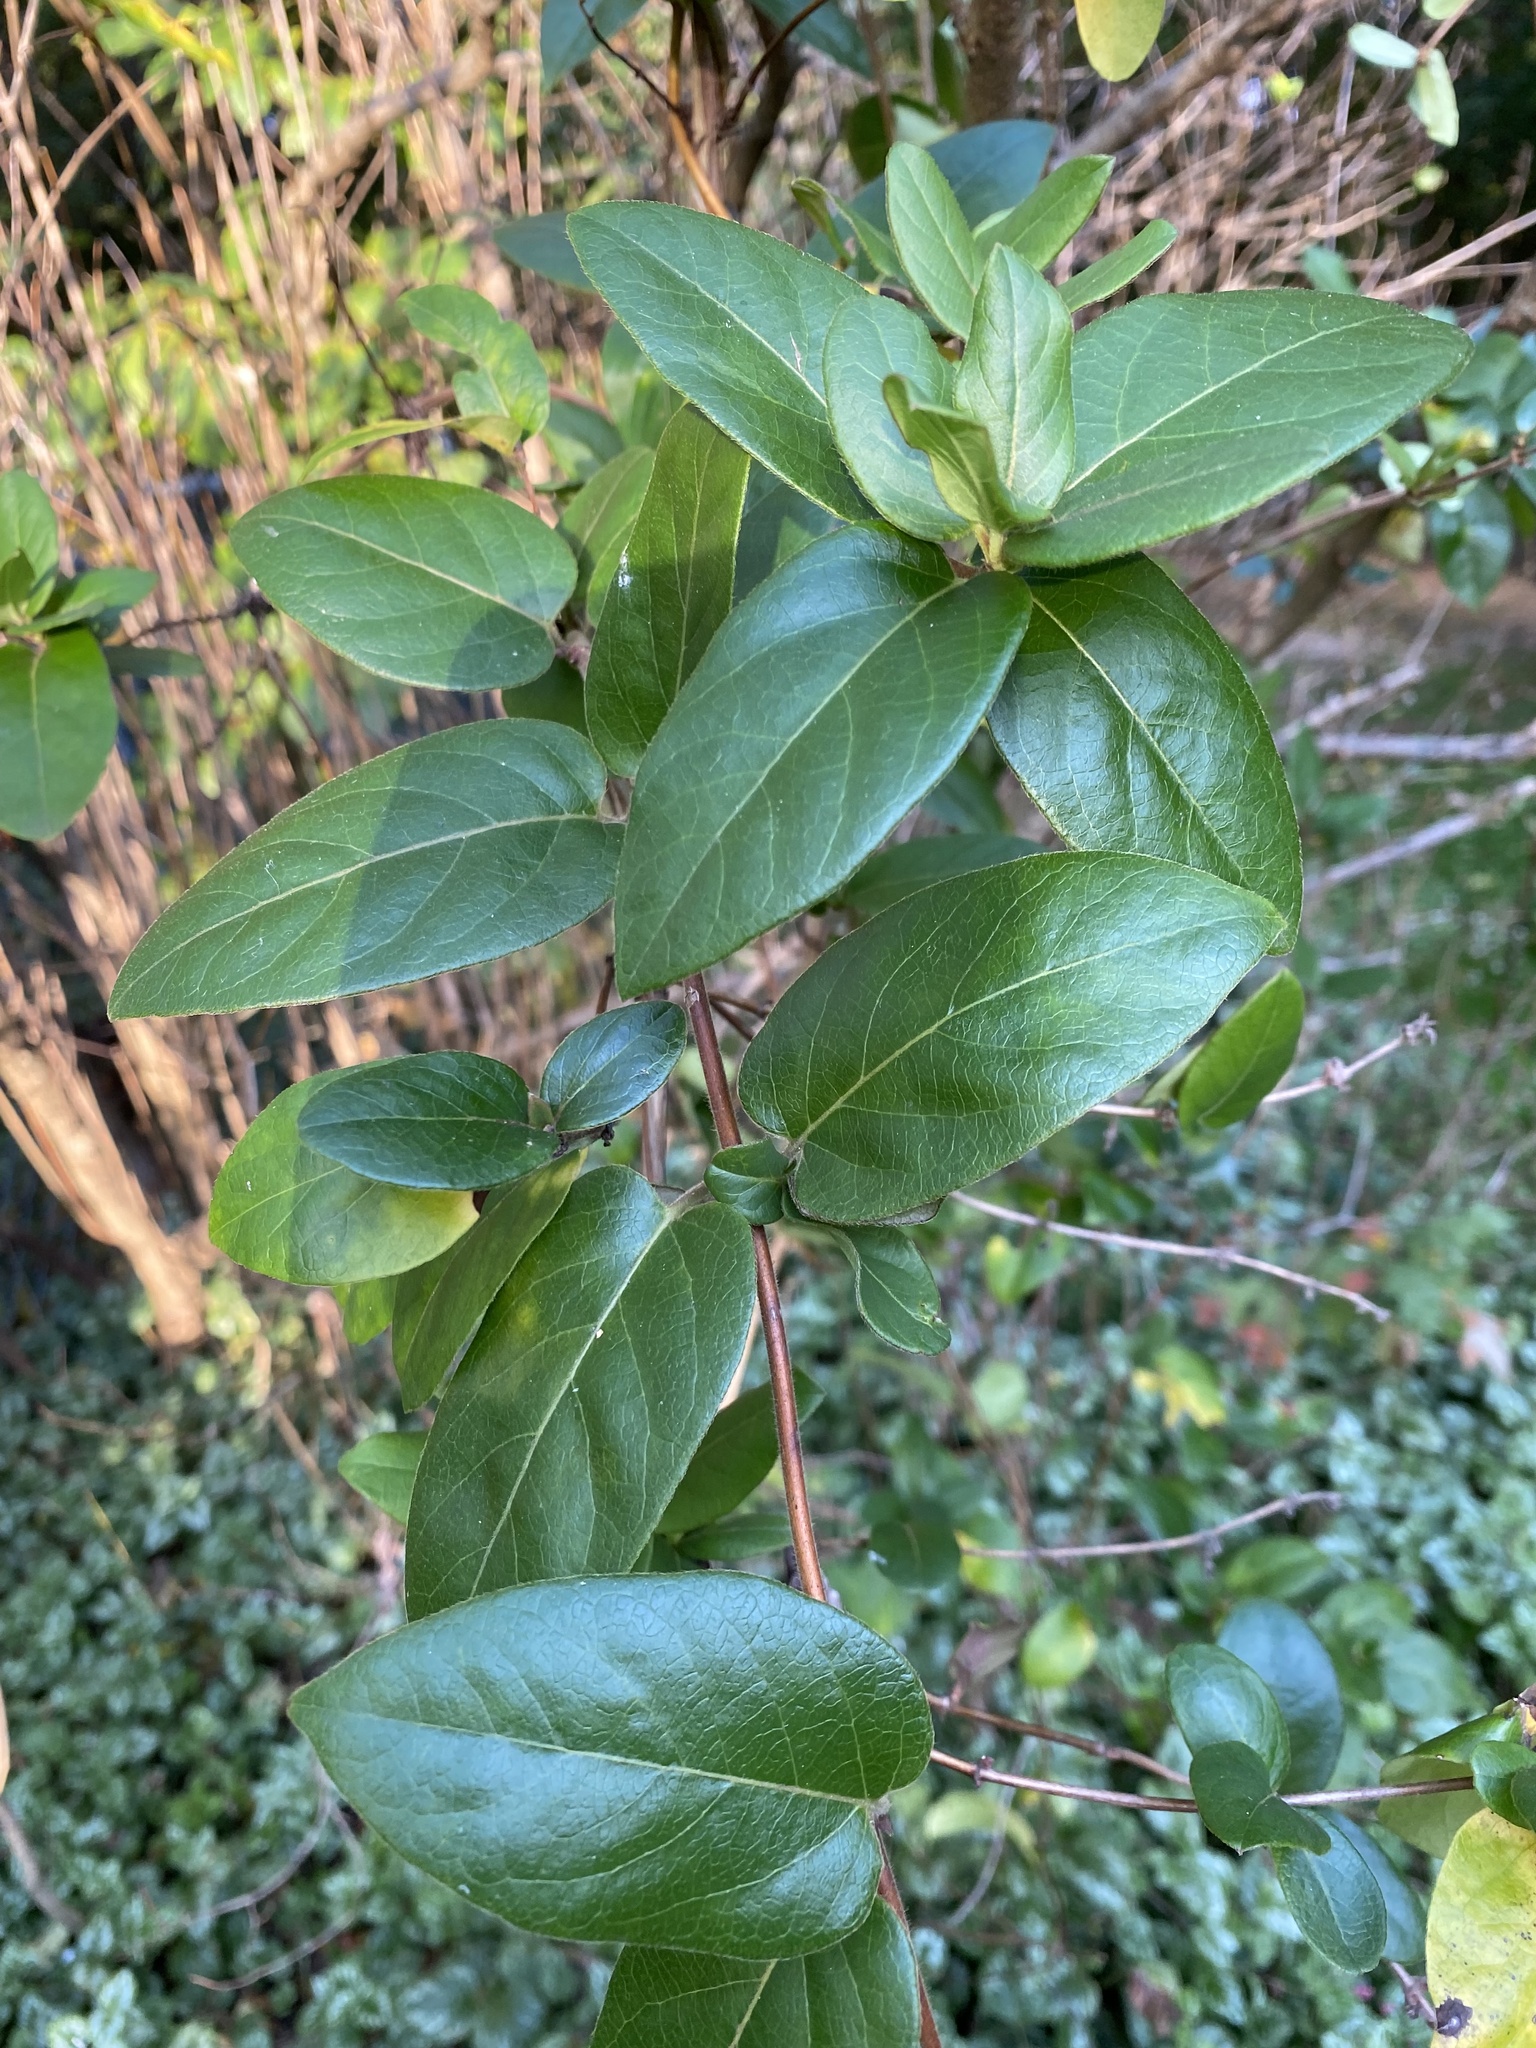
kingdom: Plantae
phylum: Tracheophyta
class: Magnoliopsida
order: Dipsacales
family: Caprifoliaceae
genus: Lonicera
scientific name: Lonicera japonica
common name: Japanese honeysuckle
